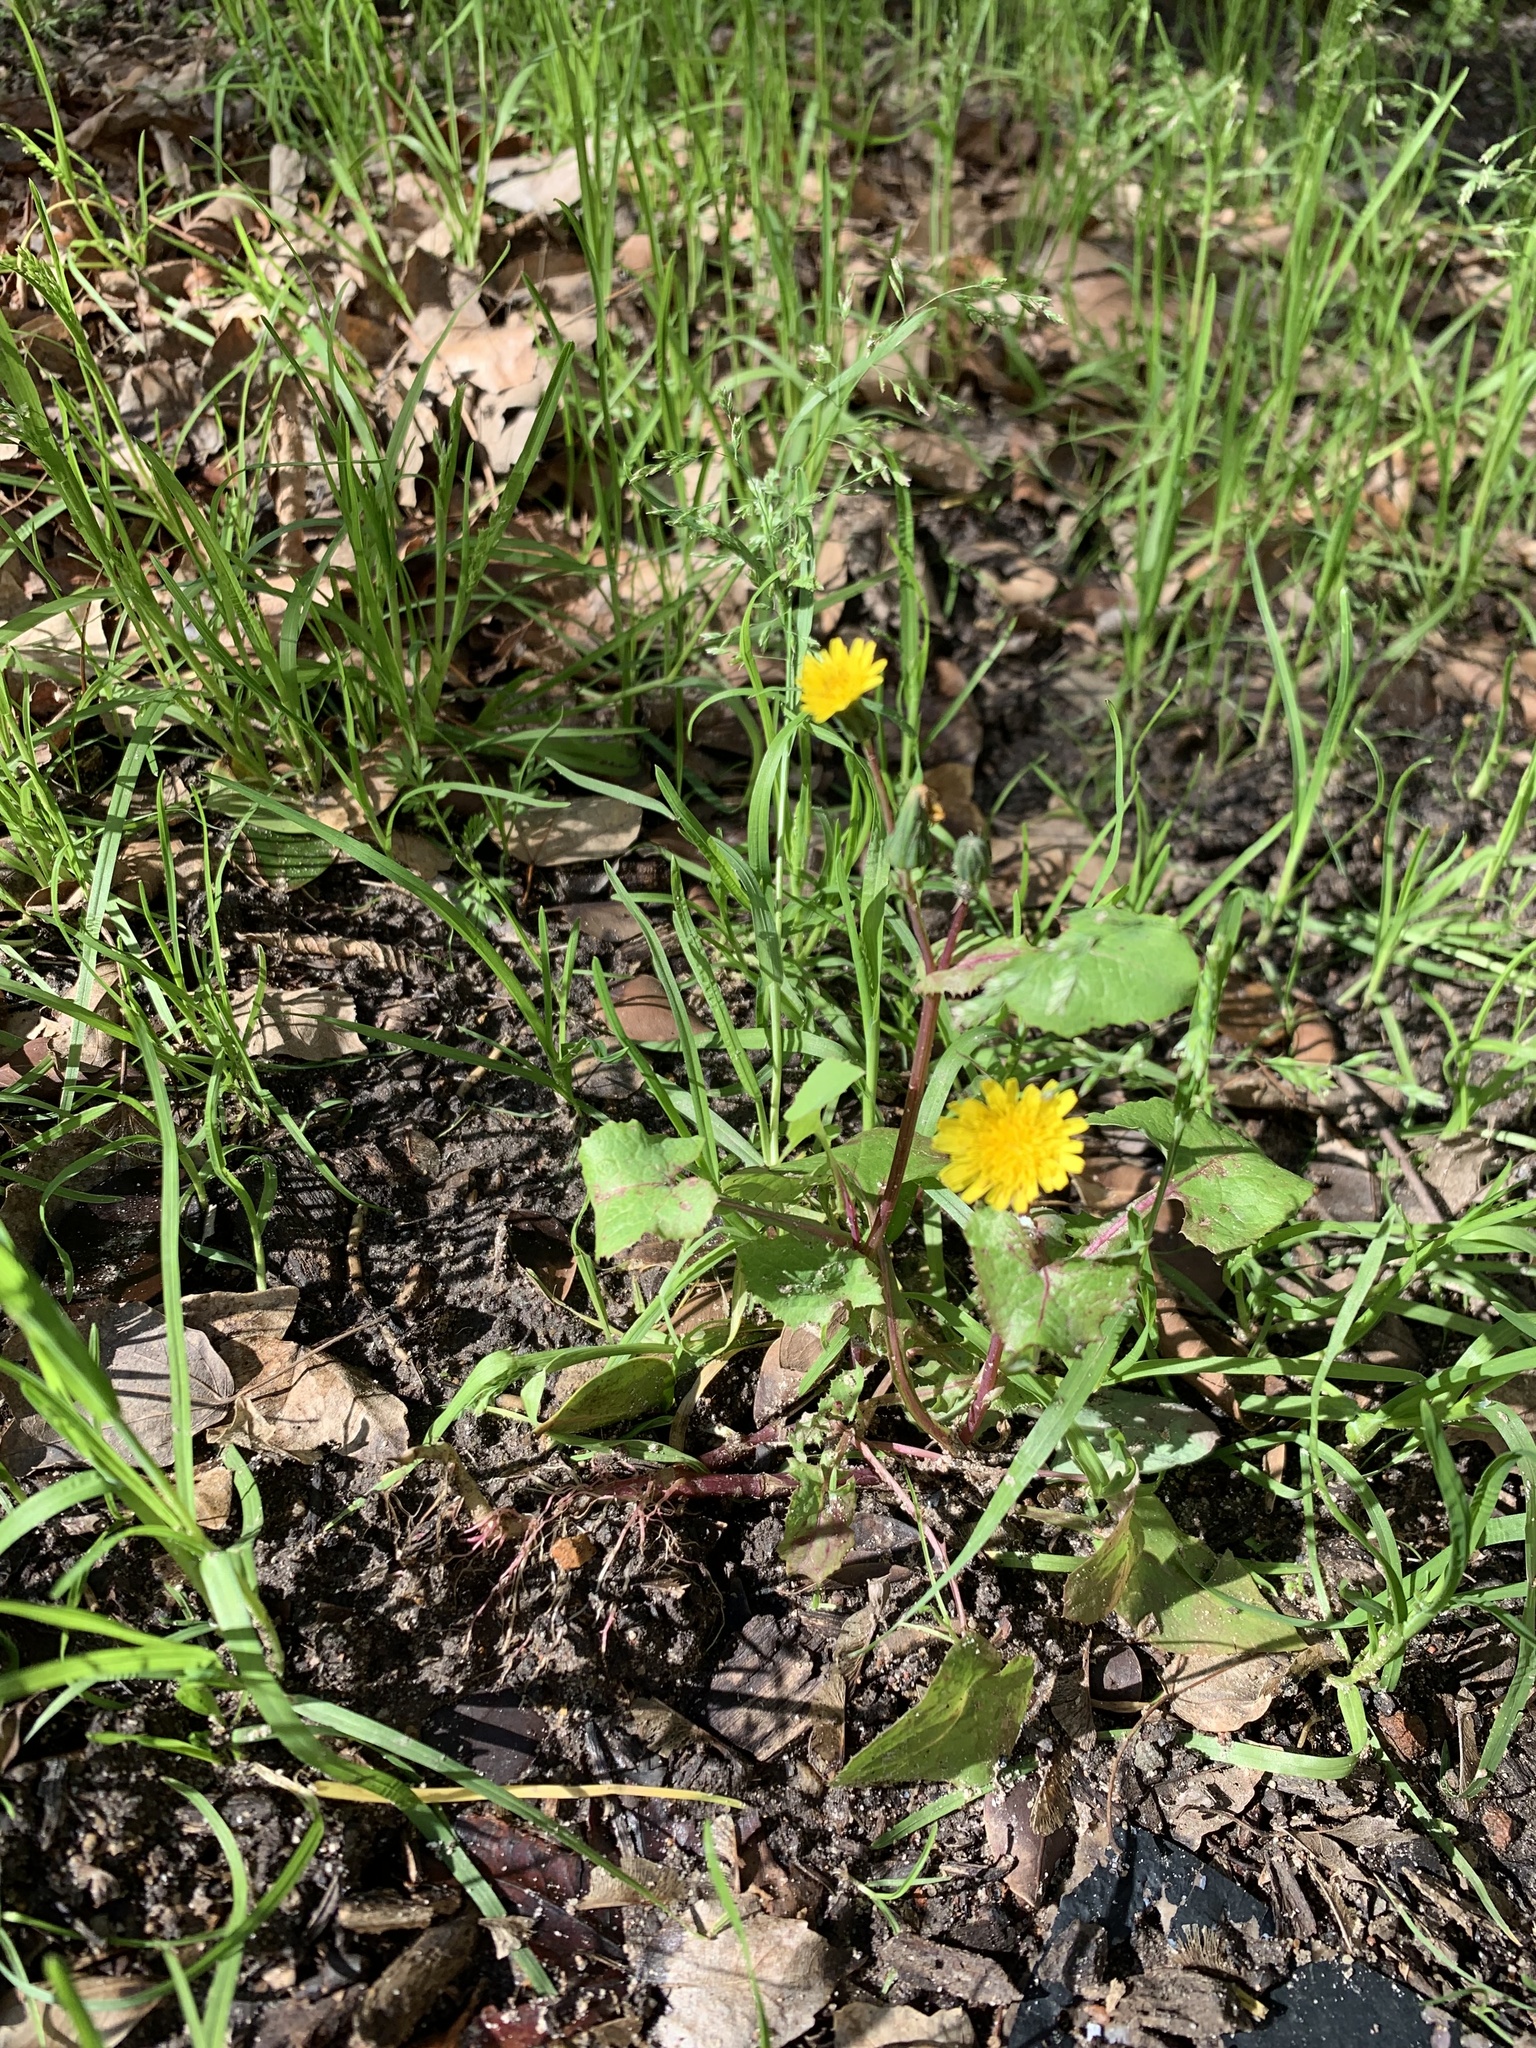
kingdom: Plantae
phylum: Tracheophyta
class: Magnoliopsida
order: Asterales
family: Asteraceae
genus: Sonchus
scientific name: Sonchus oleraceus
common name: Common sowthistle
